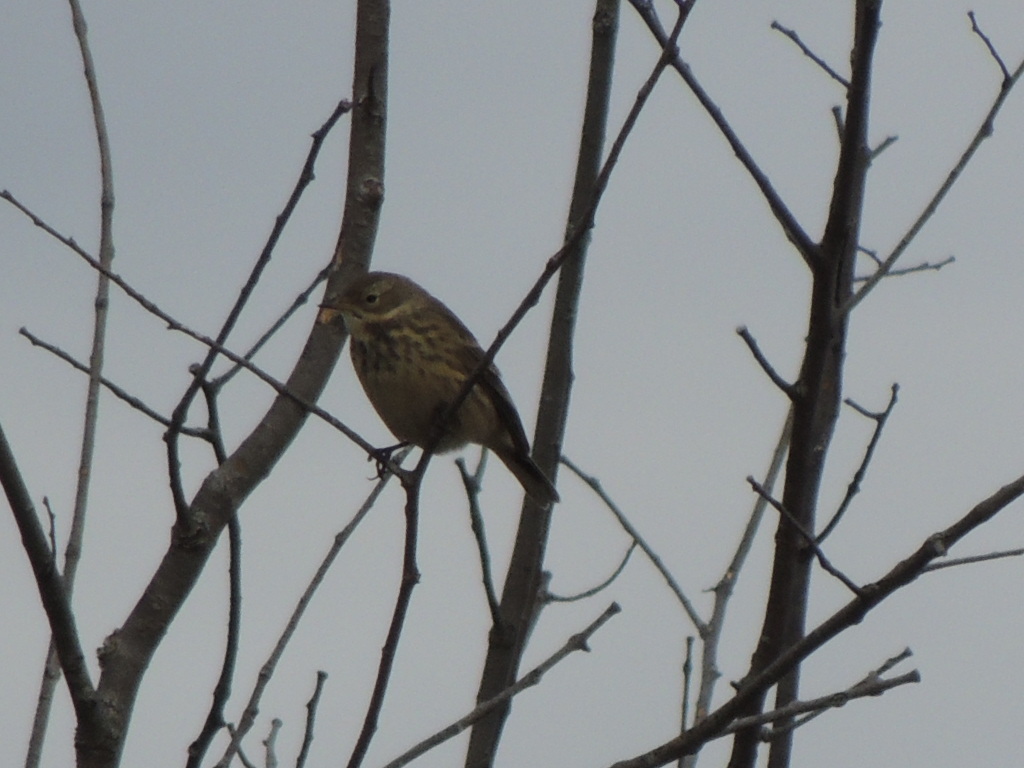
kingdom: Animalia
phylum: Chordata
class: Aves
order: Passeriformes
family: Motacillidae
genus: Anthus
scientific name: Anthus rubescens
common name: Buff-bellied pipit
